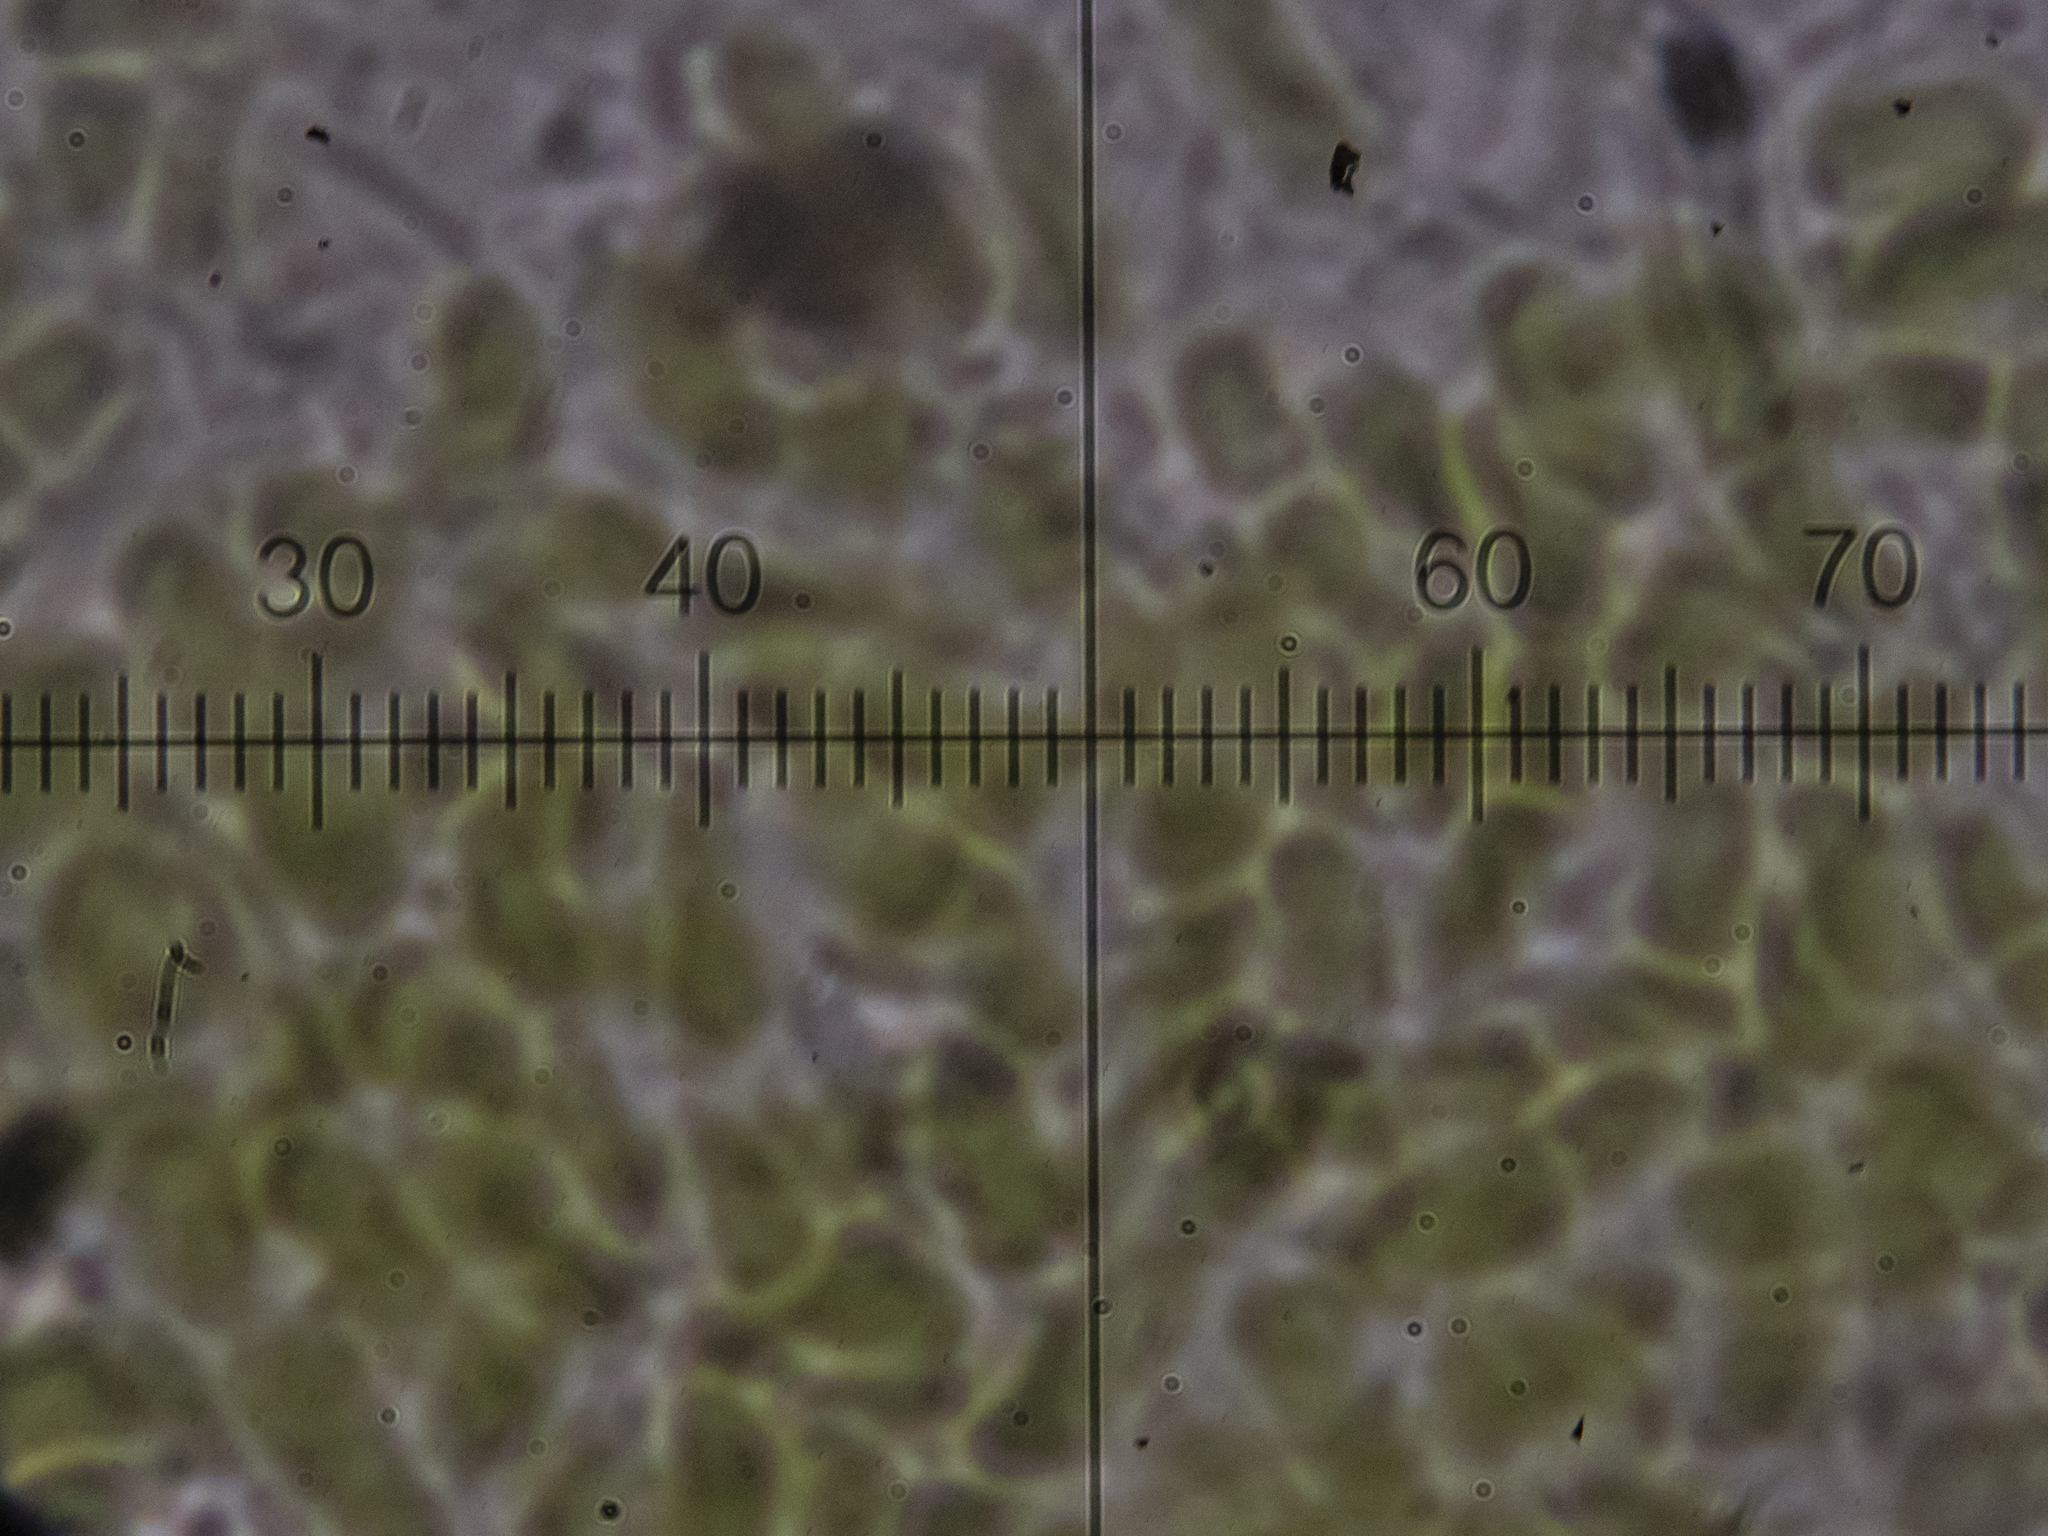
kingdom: Fungi
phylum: Ascomycota
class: Coniocybomycetes
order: Coniocybales
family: Coniocybaceae
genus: Chaenotheca
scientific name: Chaenotheca furfuracea
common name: Sulphur stubble lichen
